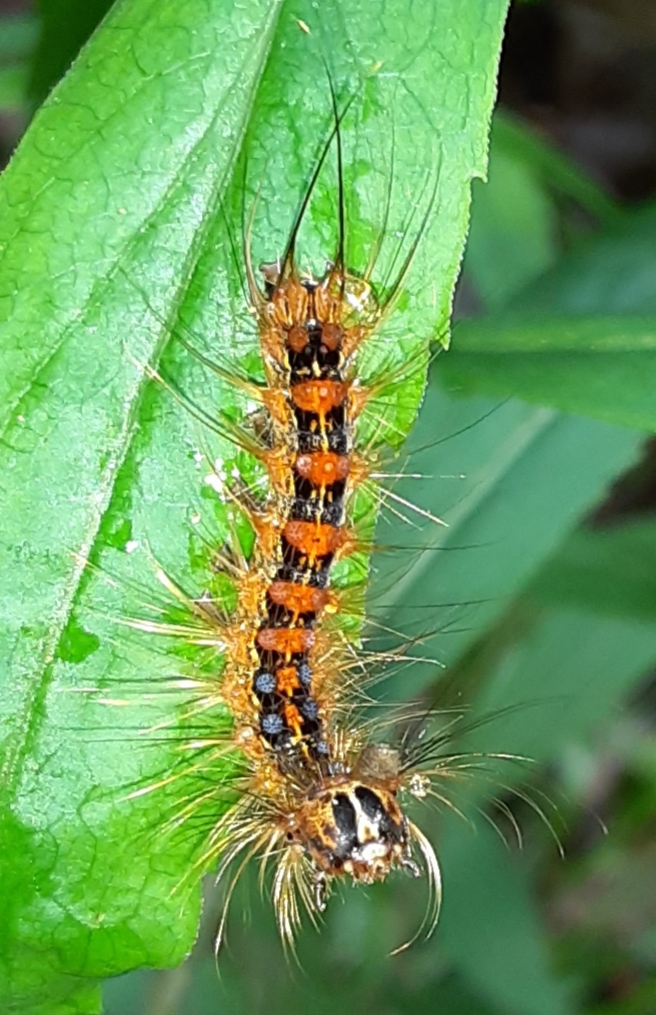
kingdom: Animalia
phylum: Arthropoda
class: Insecta
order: Lepidoptera
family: Erebidae
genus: Lymantria
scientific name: Lymantria dispar
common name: Gypsy moth
